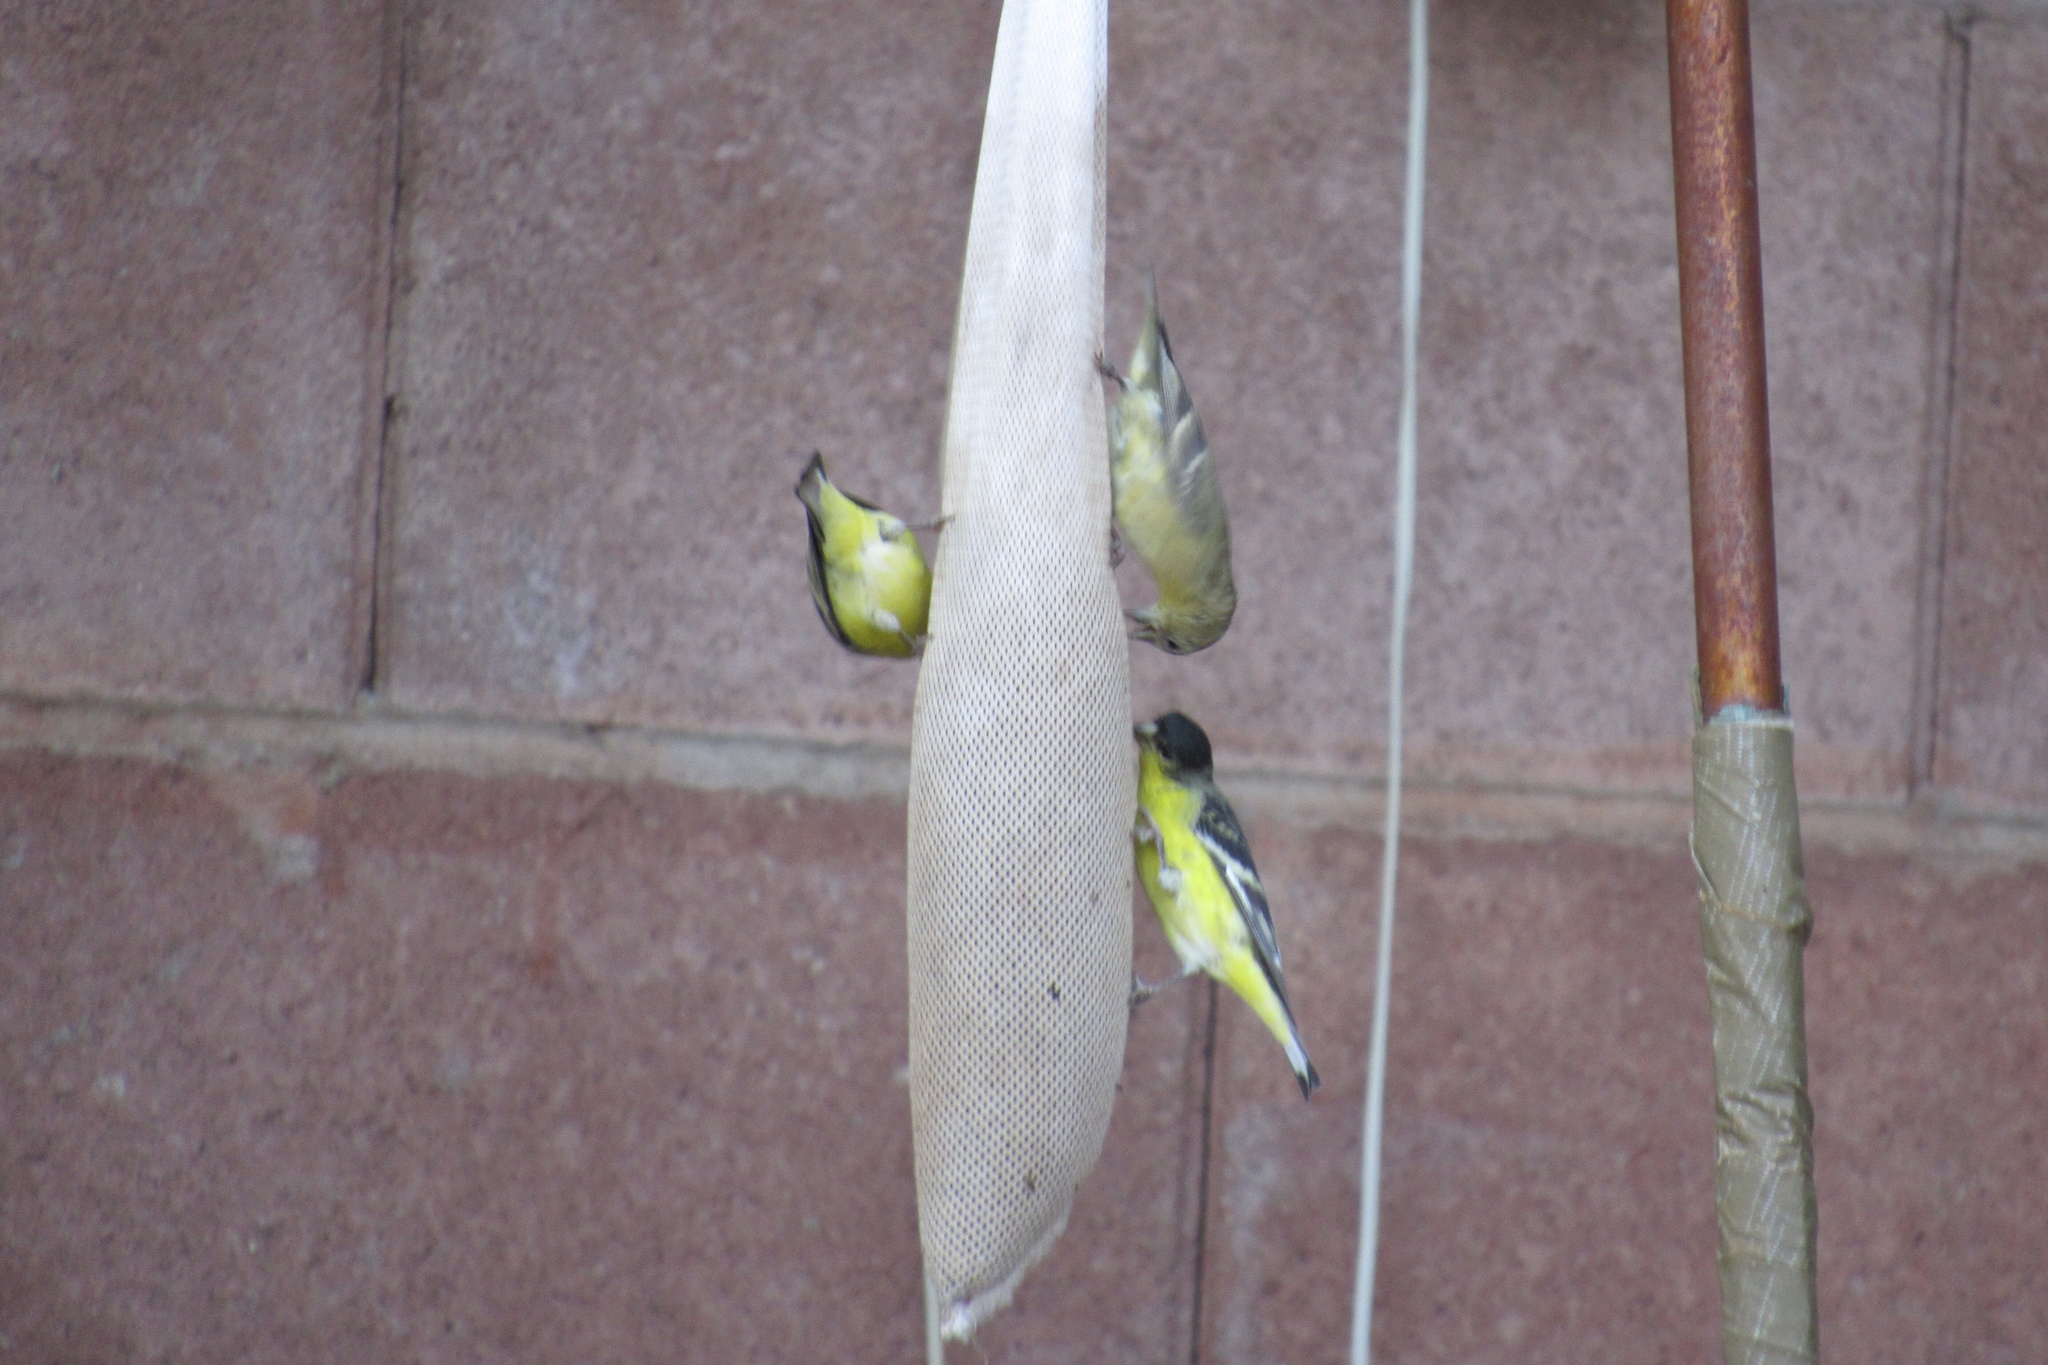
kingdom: Animalia
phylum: Chordata
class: Aves
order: Passeriformes
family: Fringillidae
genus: Spinus
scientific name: Spinus psaltria
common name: Lesser goldfinch
